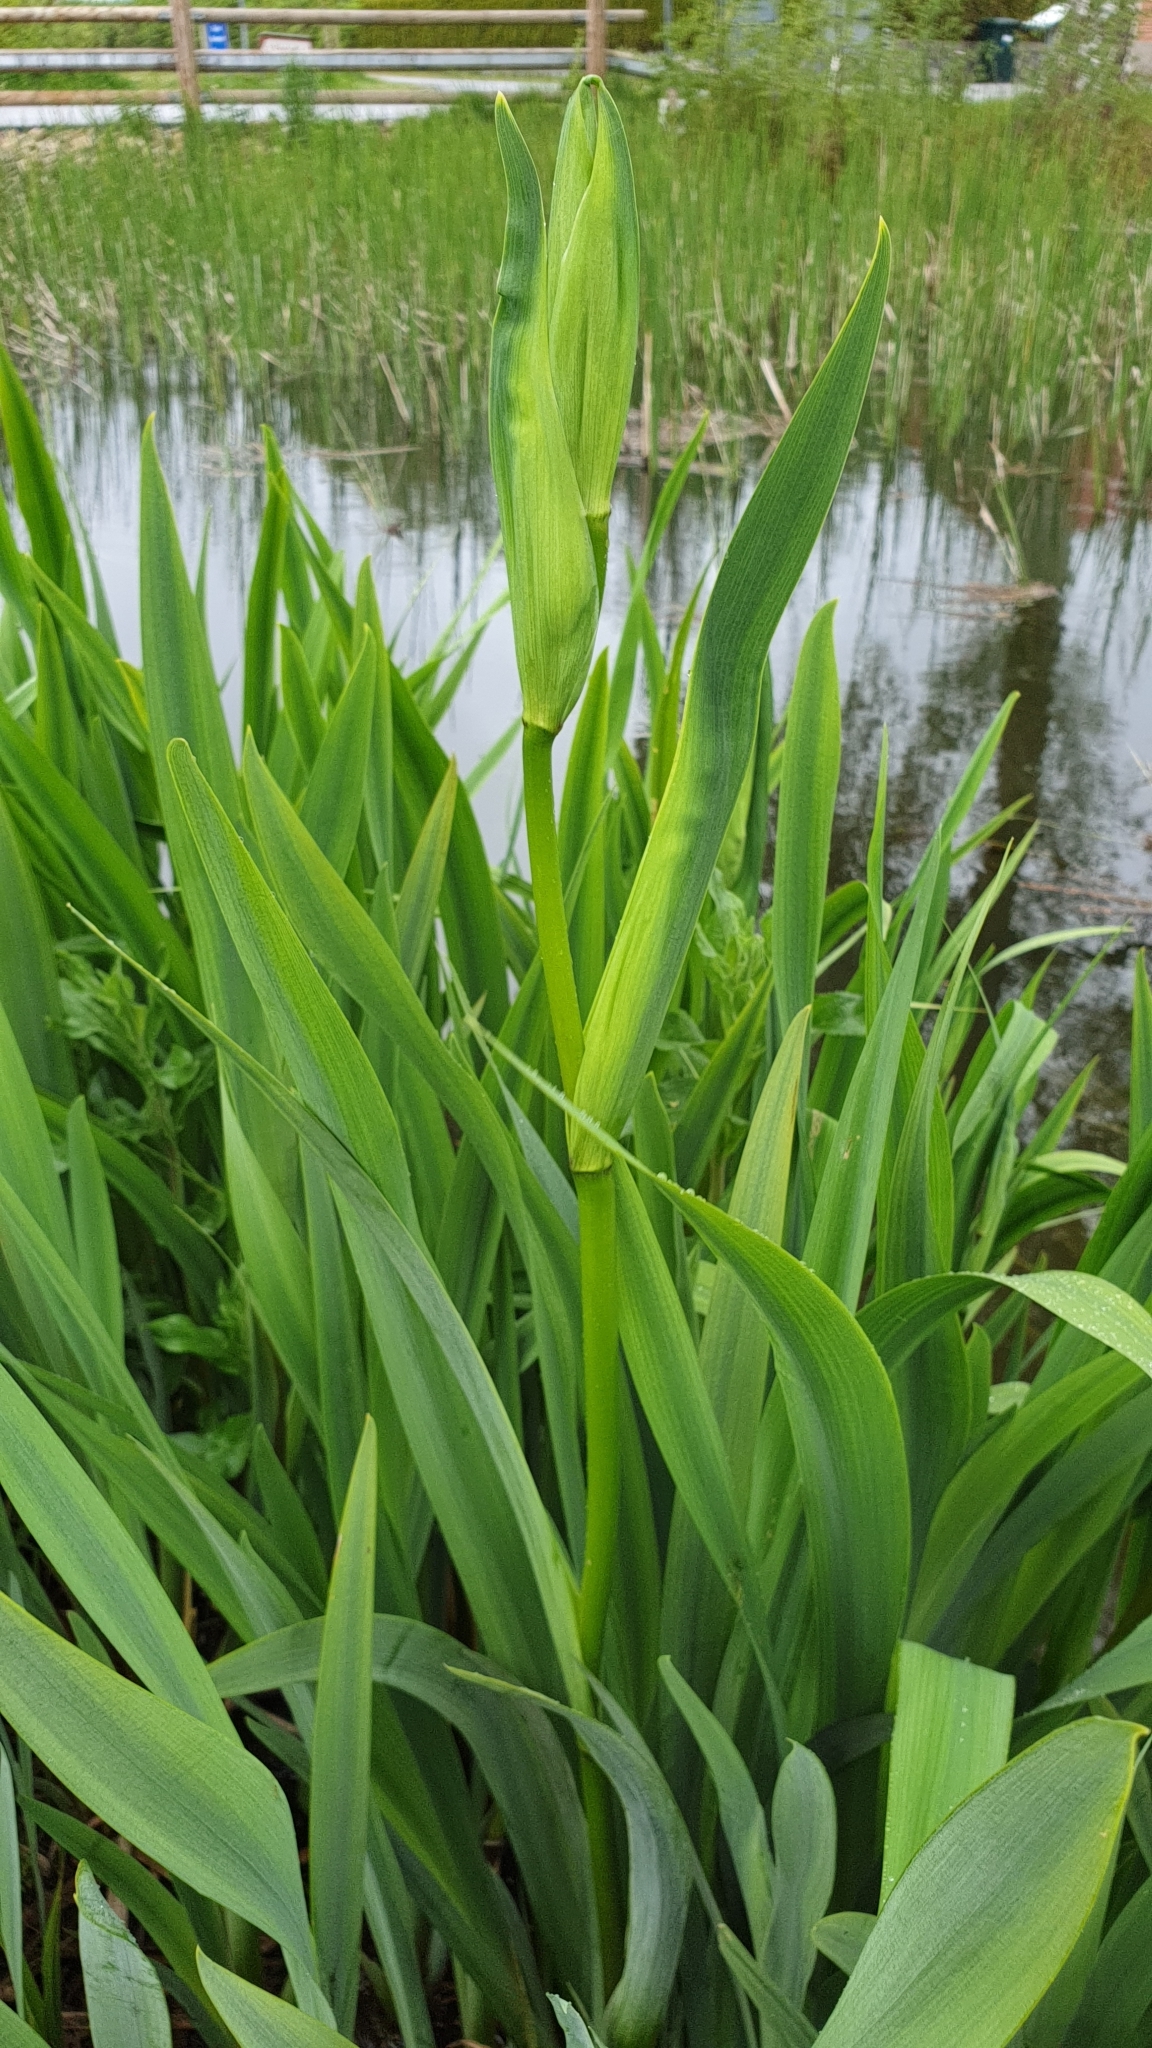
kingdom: Plantae
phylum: Tracheophyta
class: Liliopsida
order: Asparagales
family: Iridaceae
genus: Iris
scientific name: Iris pseudacorus
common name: Yellow flag
